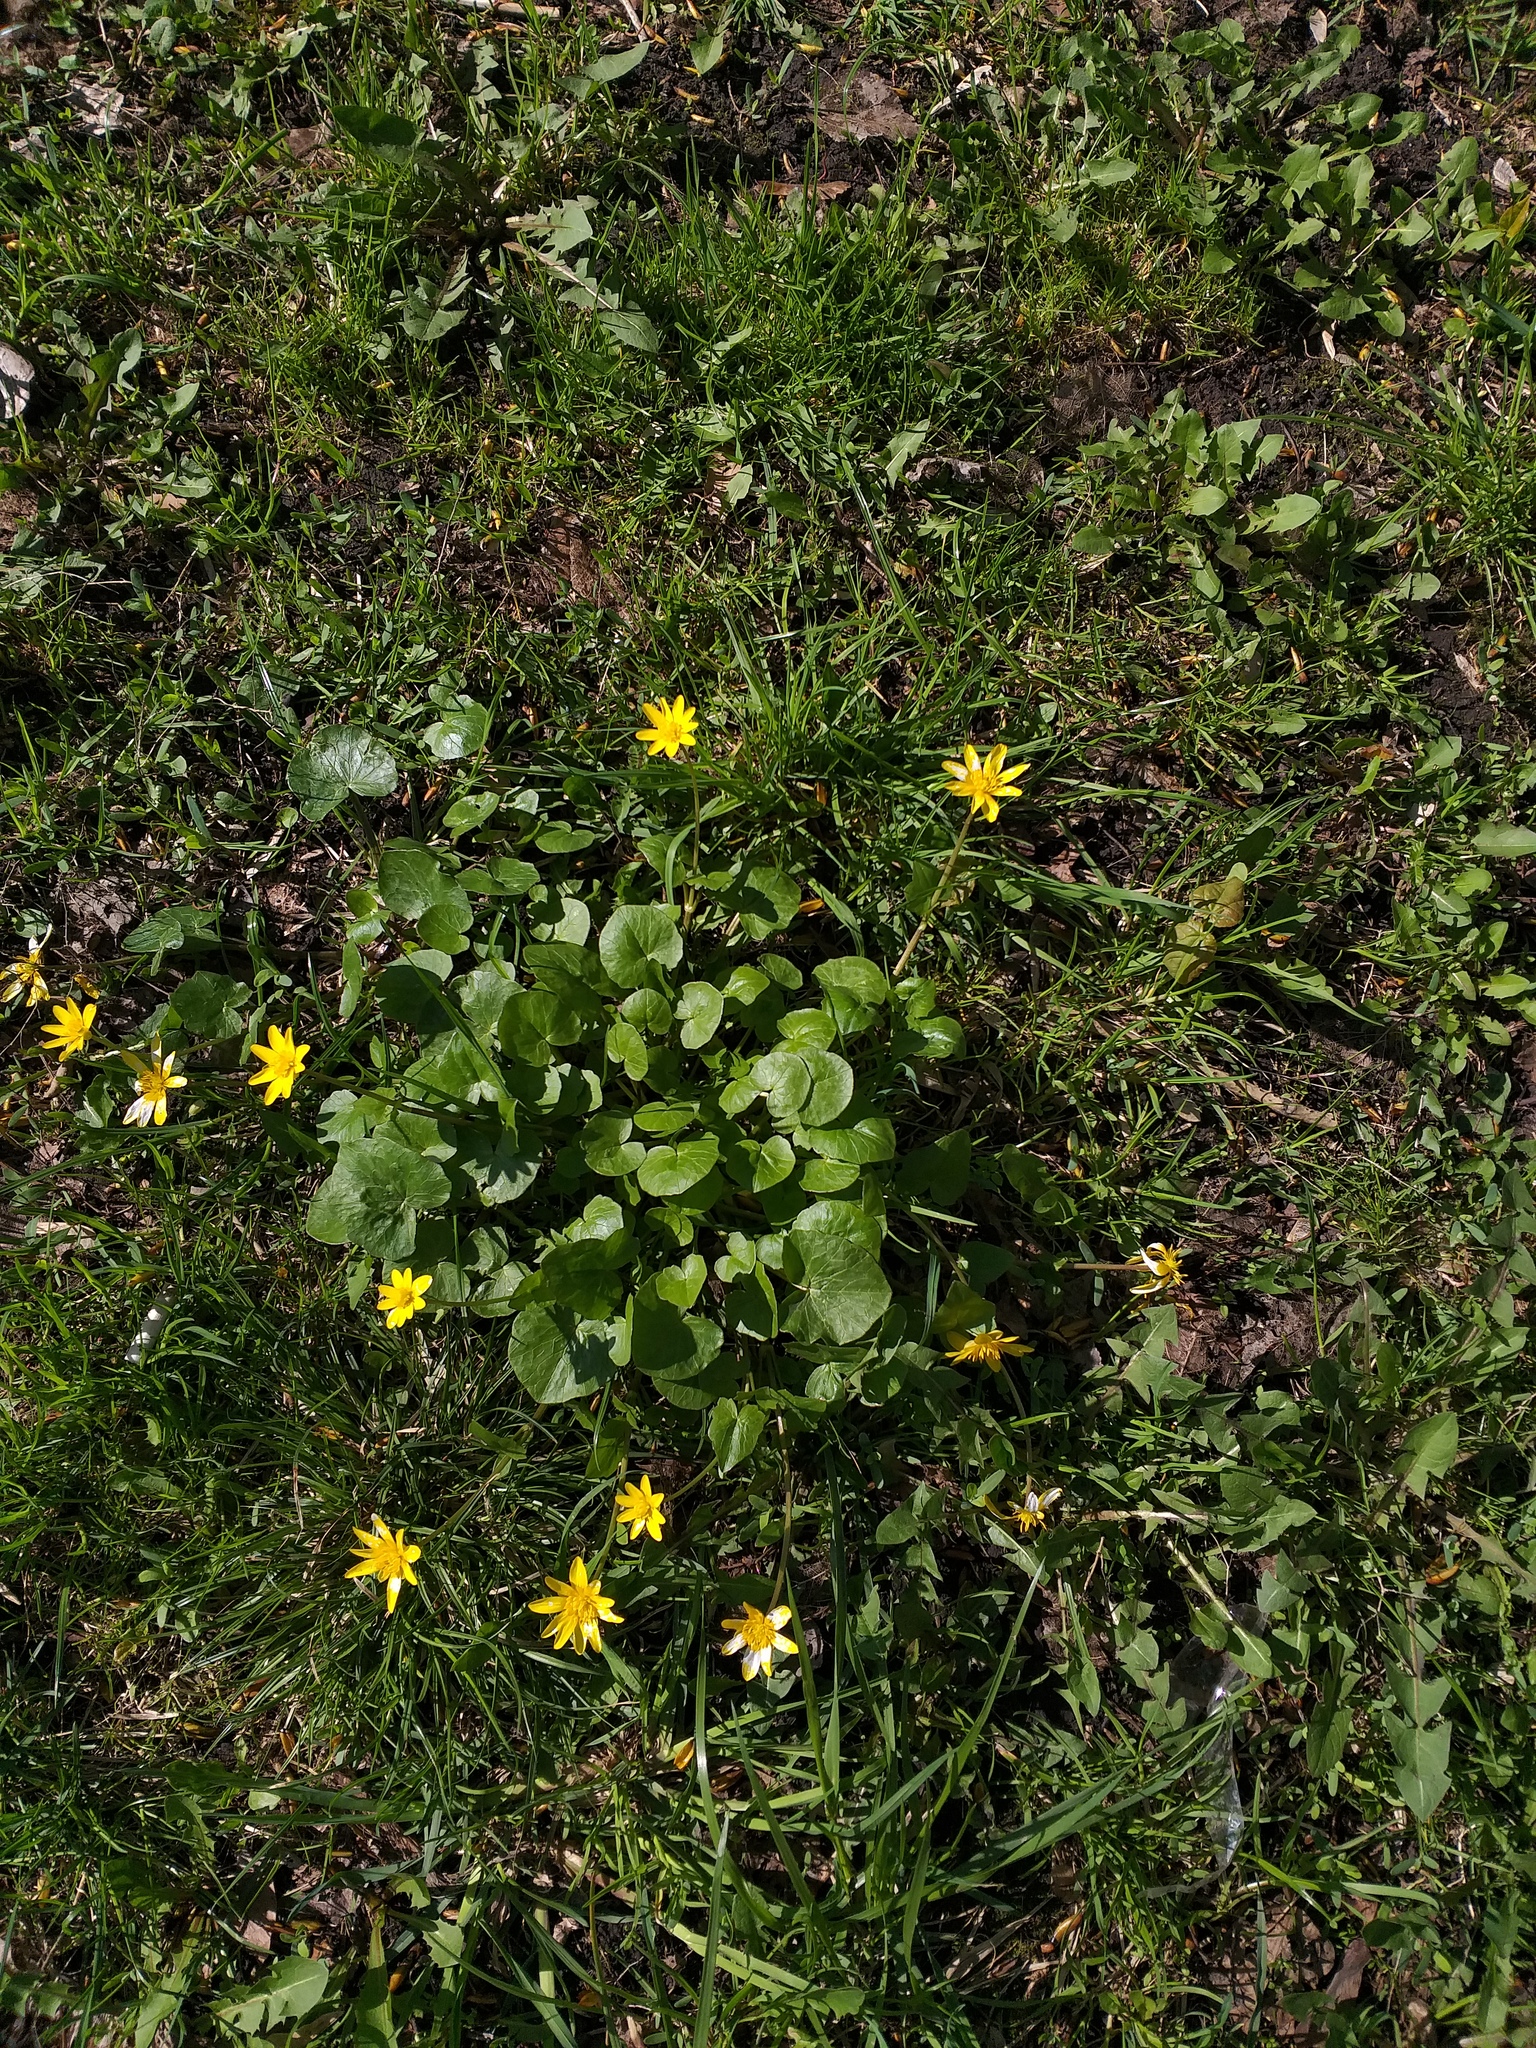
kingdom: Plantae
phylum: Tracheophyta
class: Magnoliopsida
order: Ranunculales
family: Ranunculaceae
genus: Ficaria
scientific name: Ficaria verna
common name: Lesser celandine
